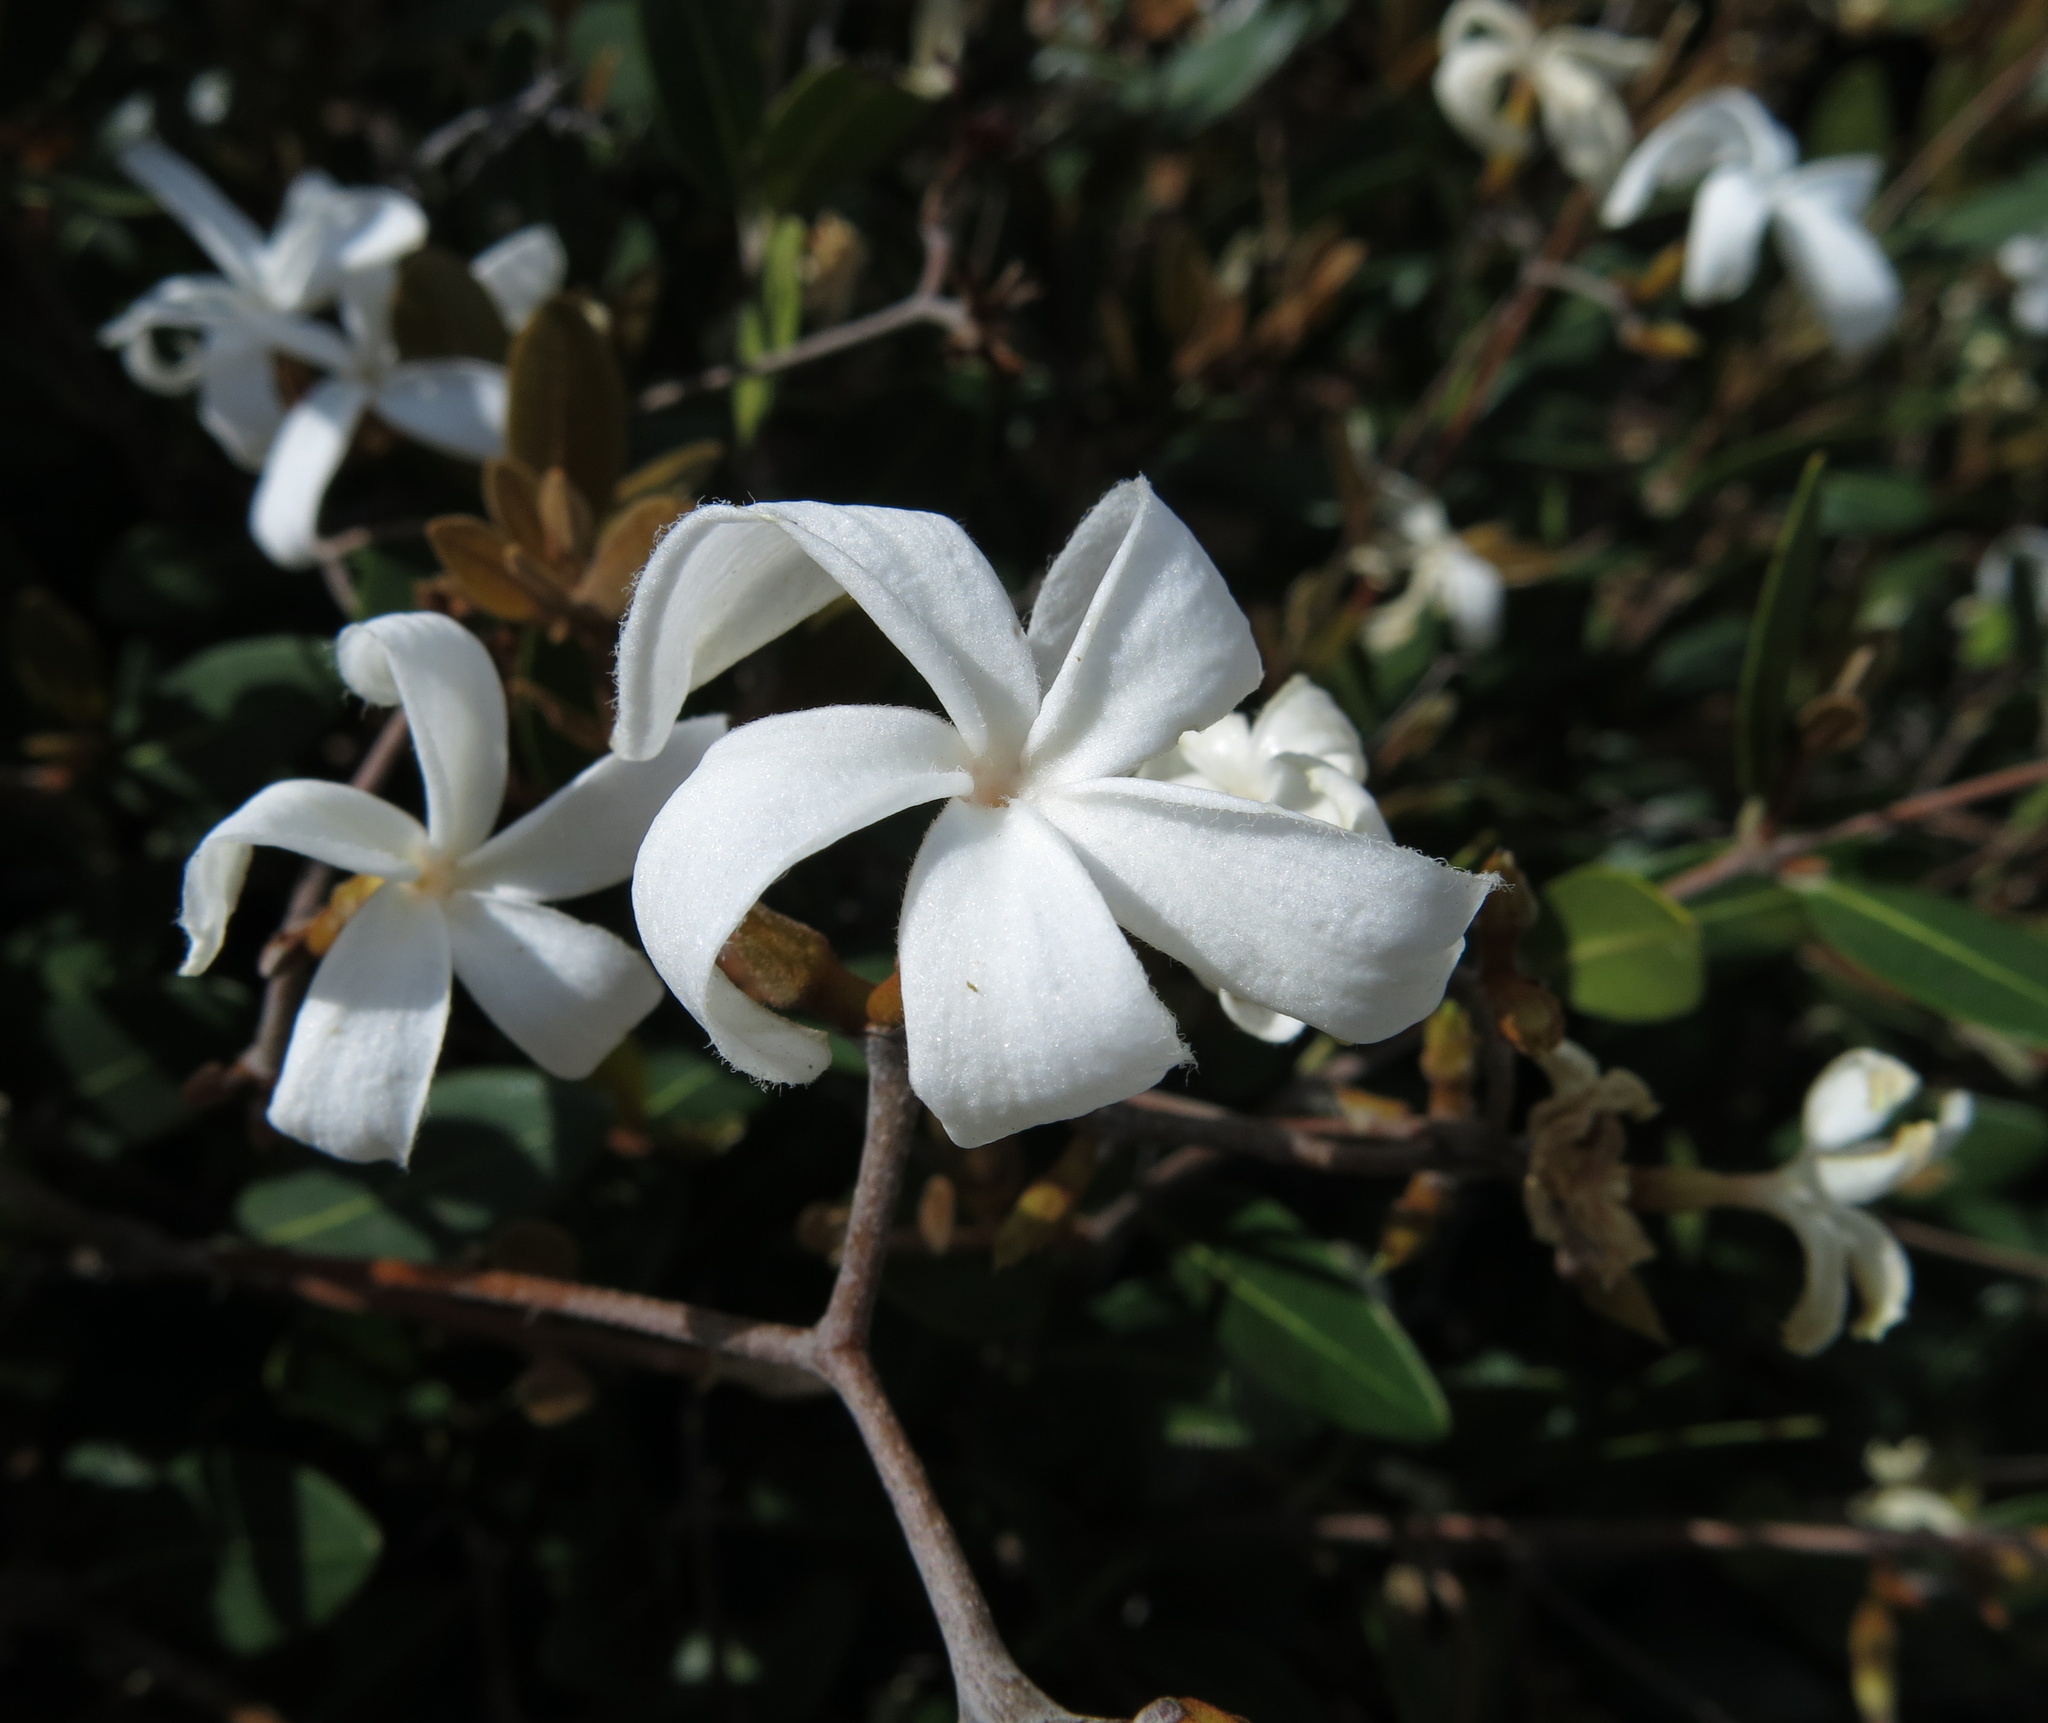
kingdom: Plantae
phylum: Tracheophyta
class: Magnoliopsida
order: Gentianales
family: Apocynaceae
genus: Ancylobothrys
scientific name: Ancylobothrys capensis
